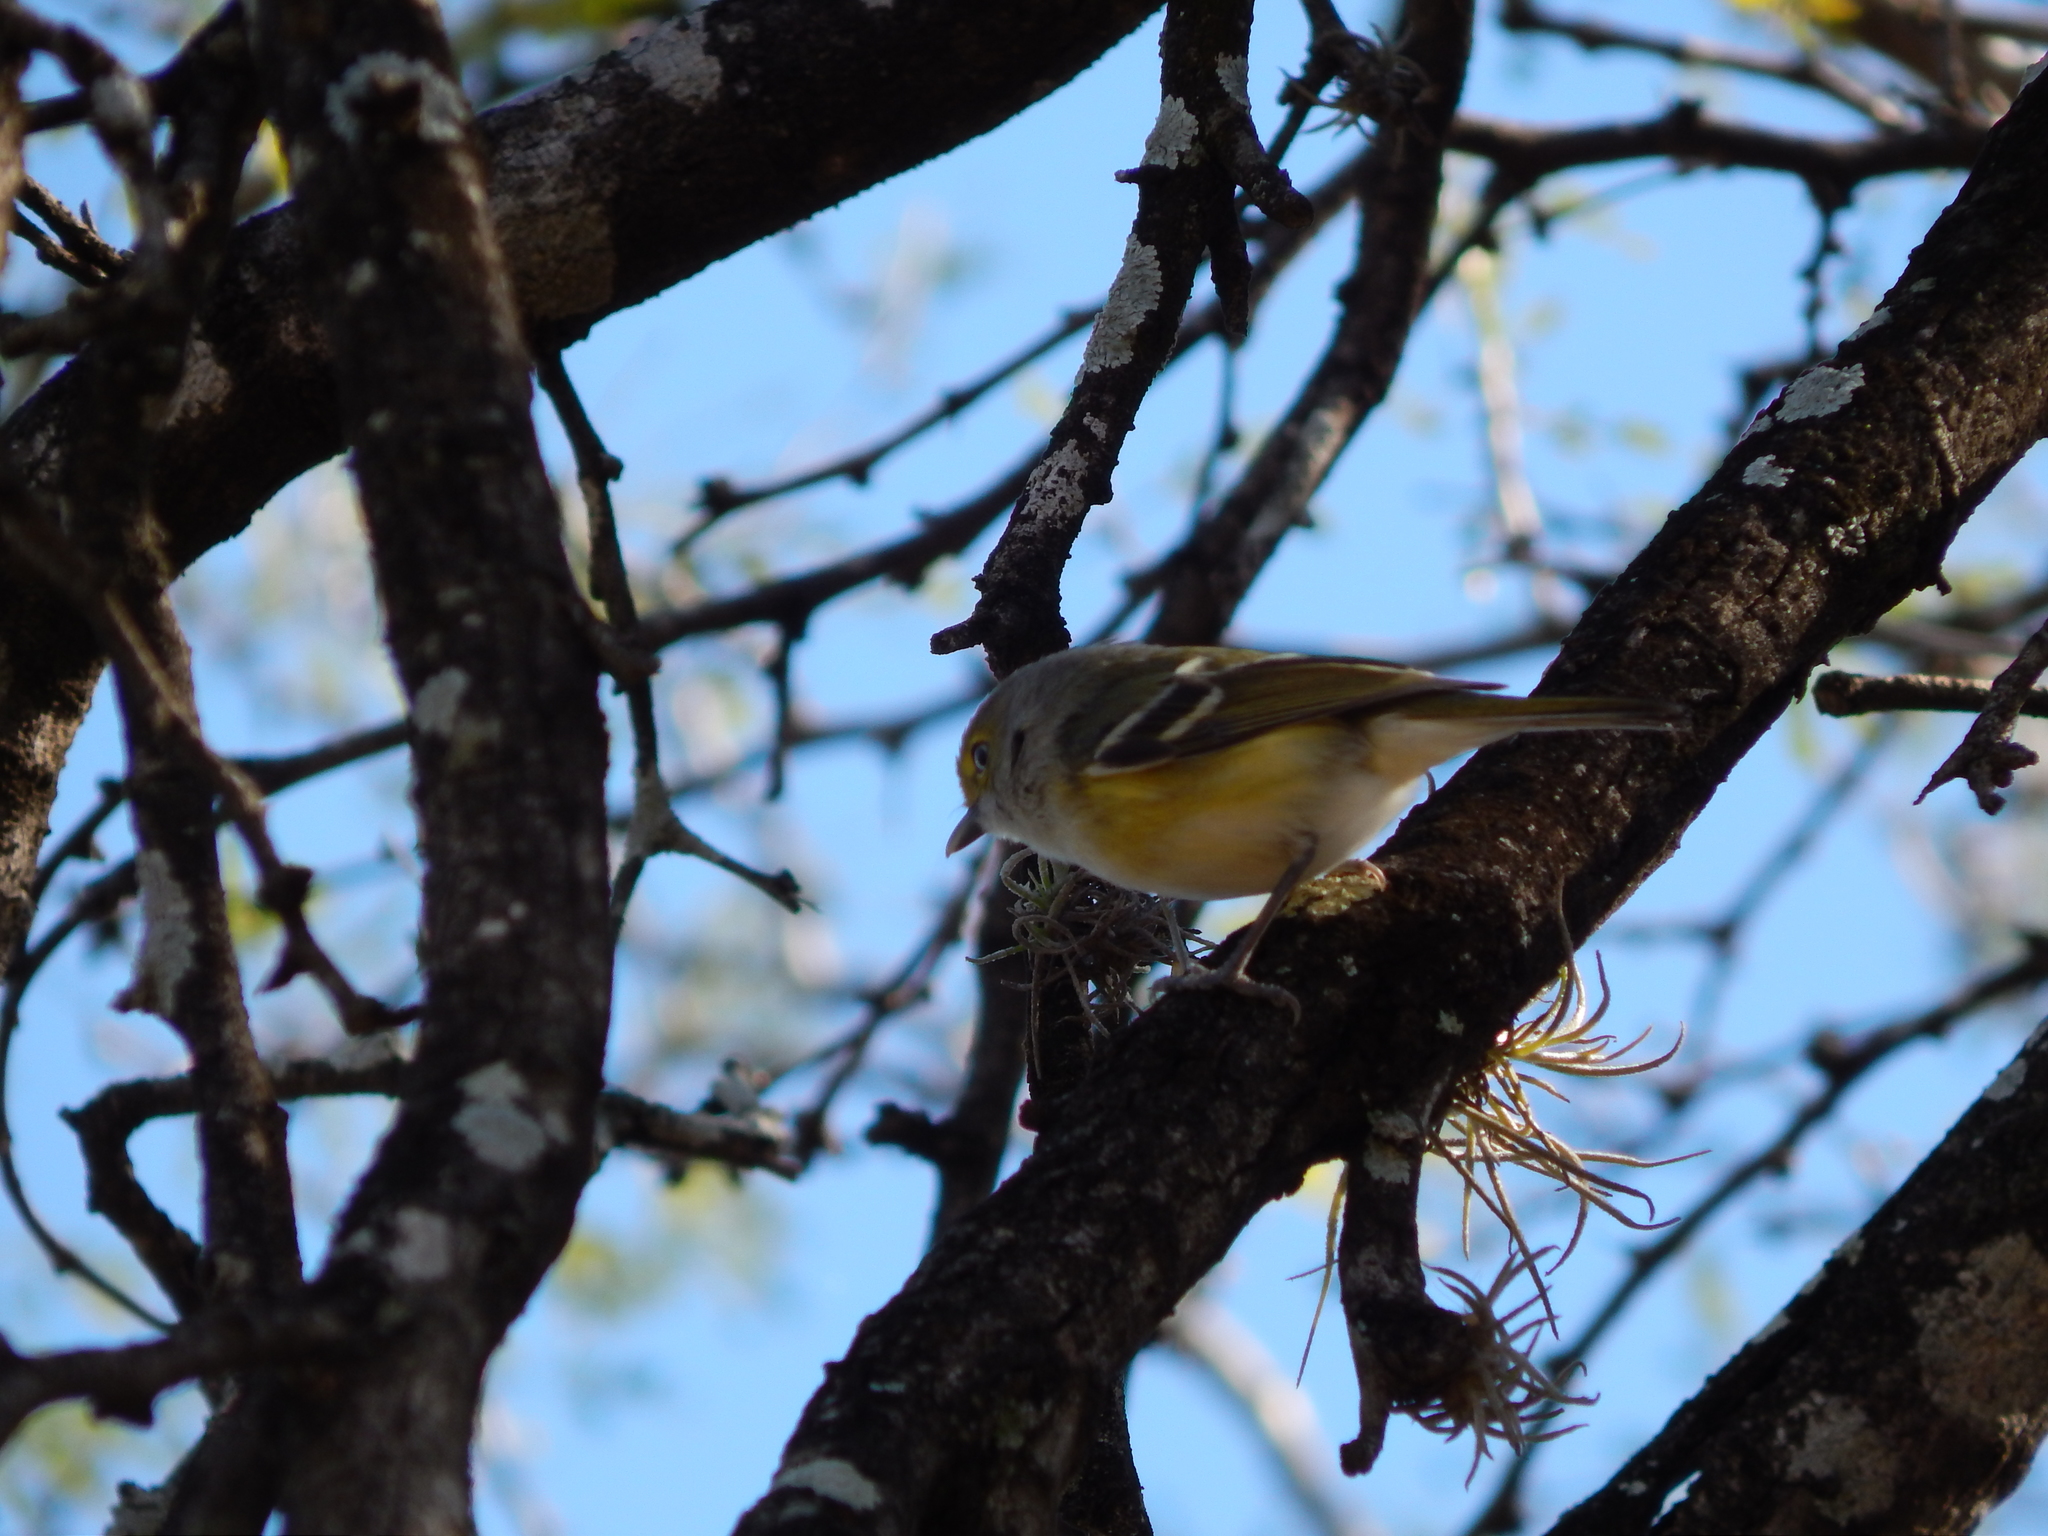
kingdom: Animalia
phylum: Chordata
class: Aves
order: Passeriformes
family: Vireonidae
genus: Vireo
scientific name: Vireo griseus
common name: White-eyed vireo
